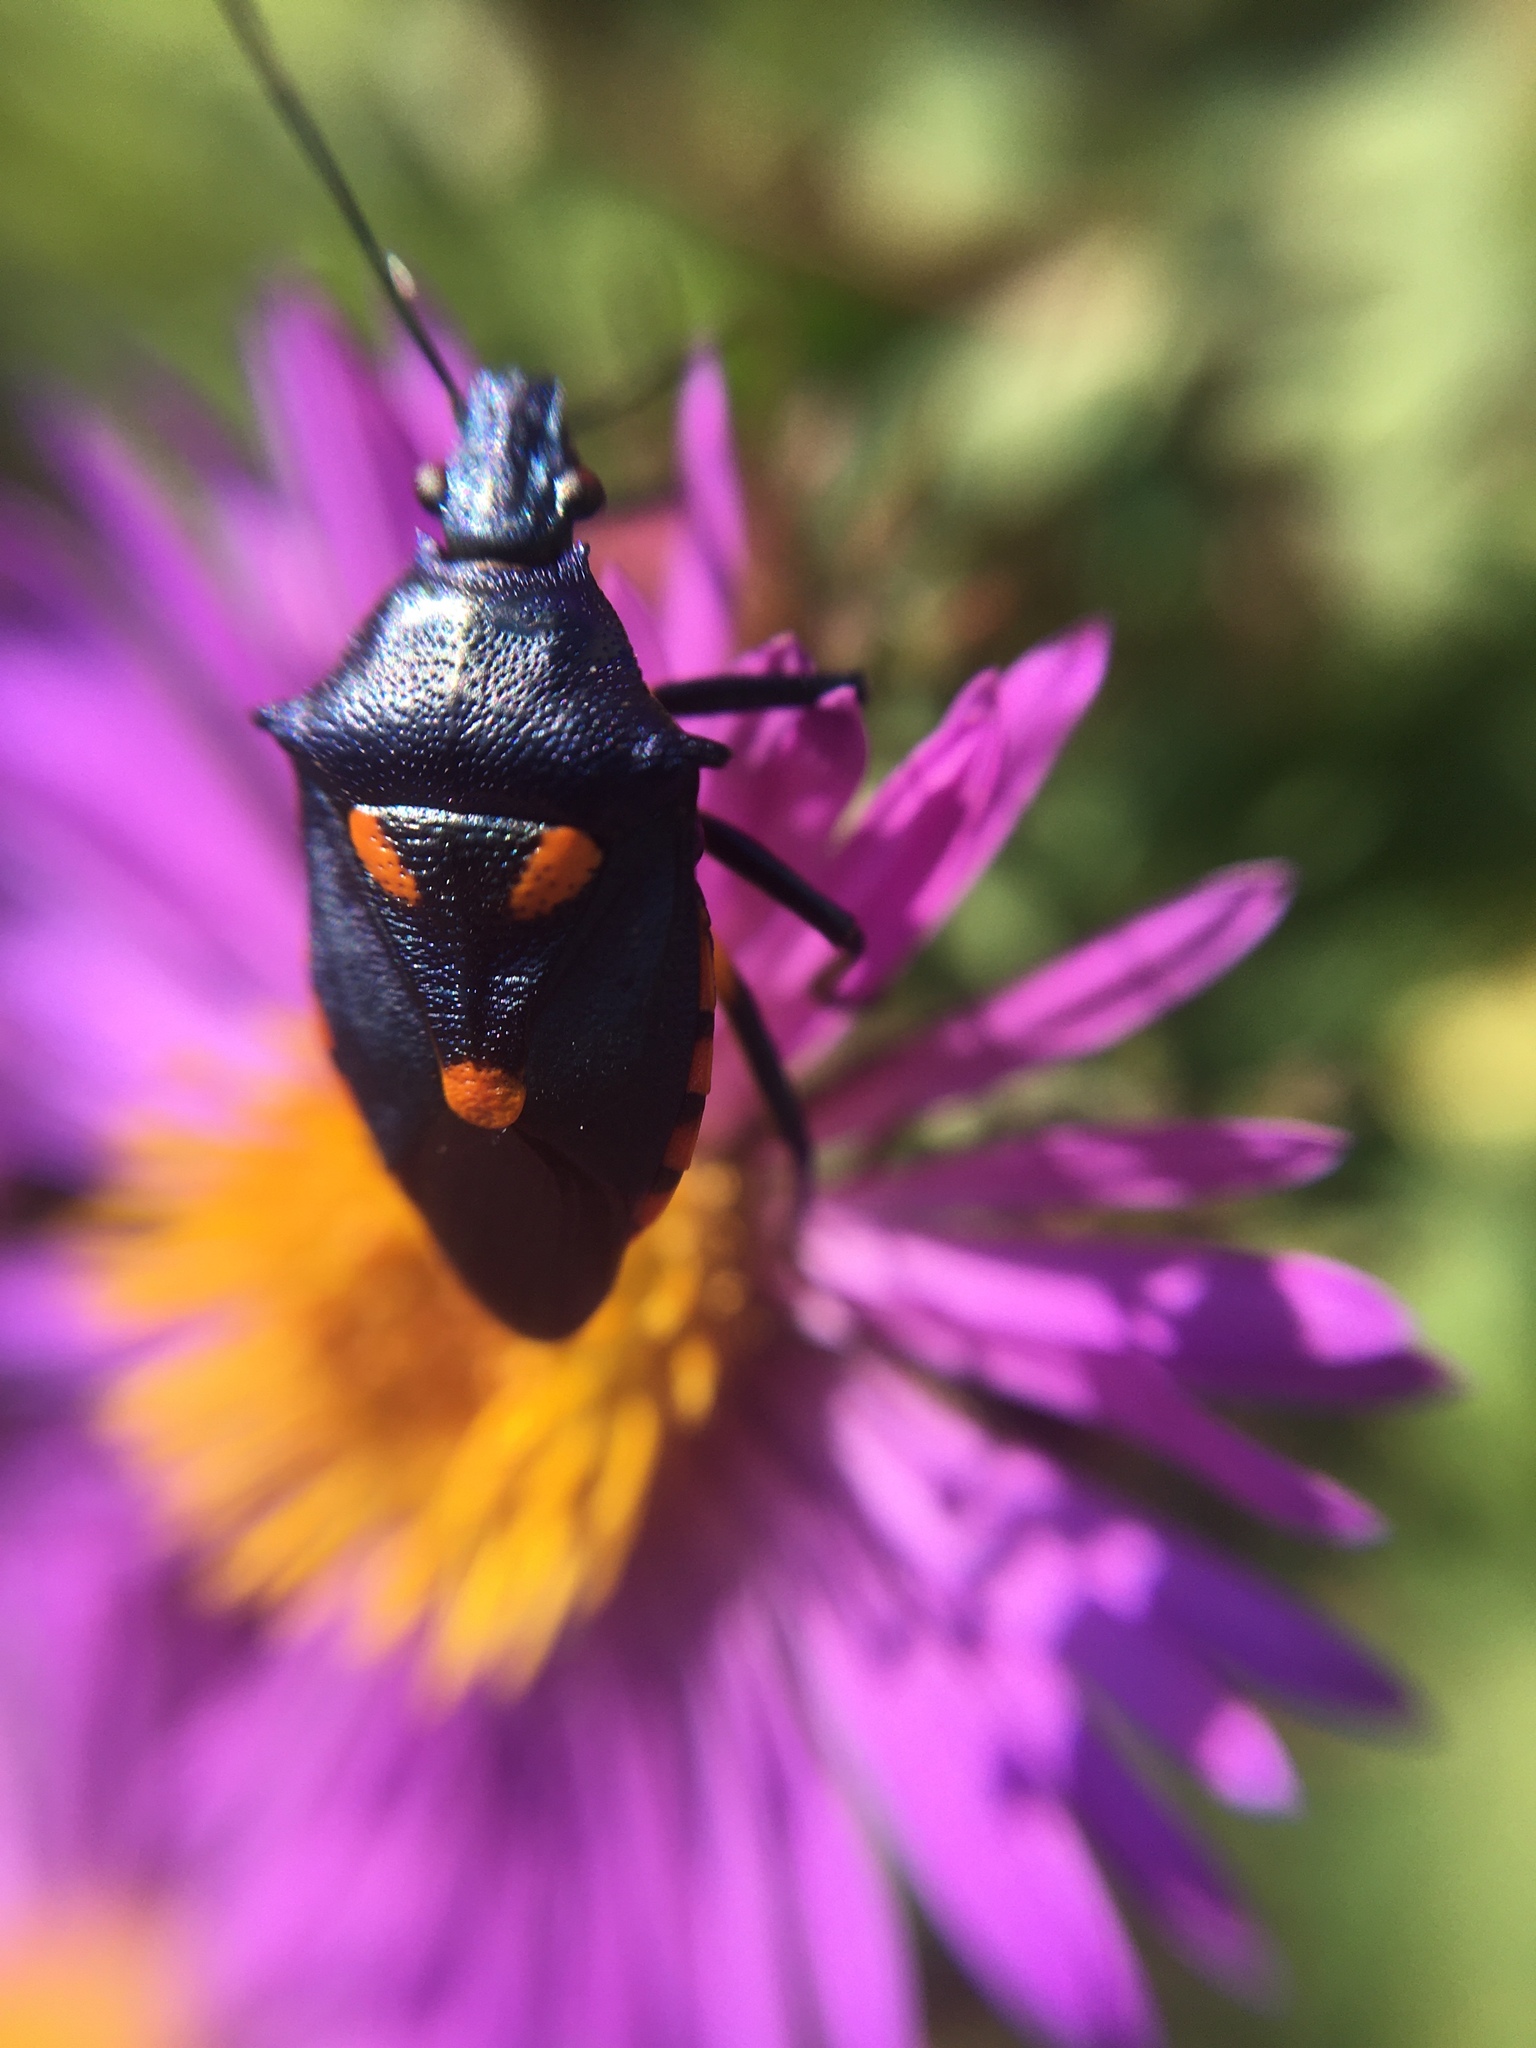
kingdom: Animalia
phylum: Arthropoda
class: Insecta
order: Hemiptera
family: Pentatomidae
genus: Euthyrhynchus
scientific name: Euthyrhynchus floridanus
